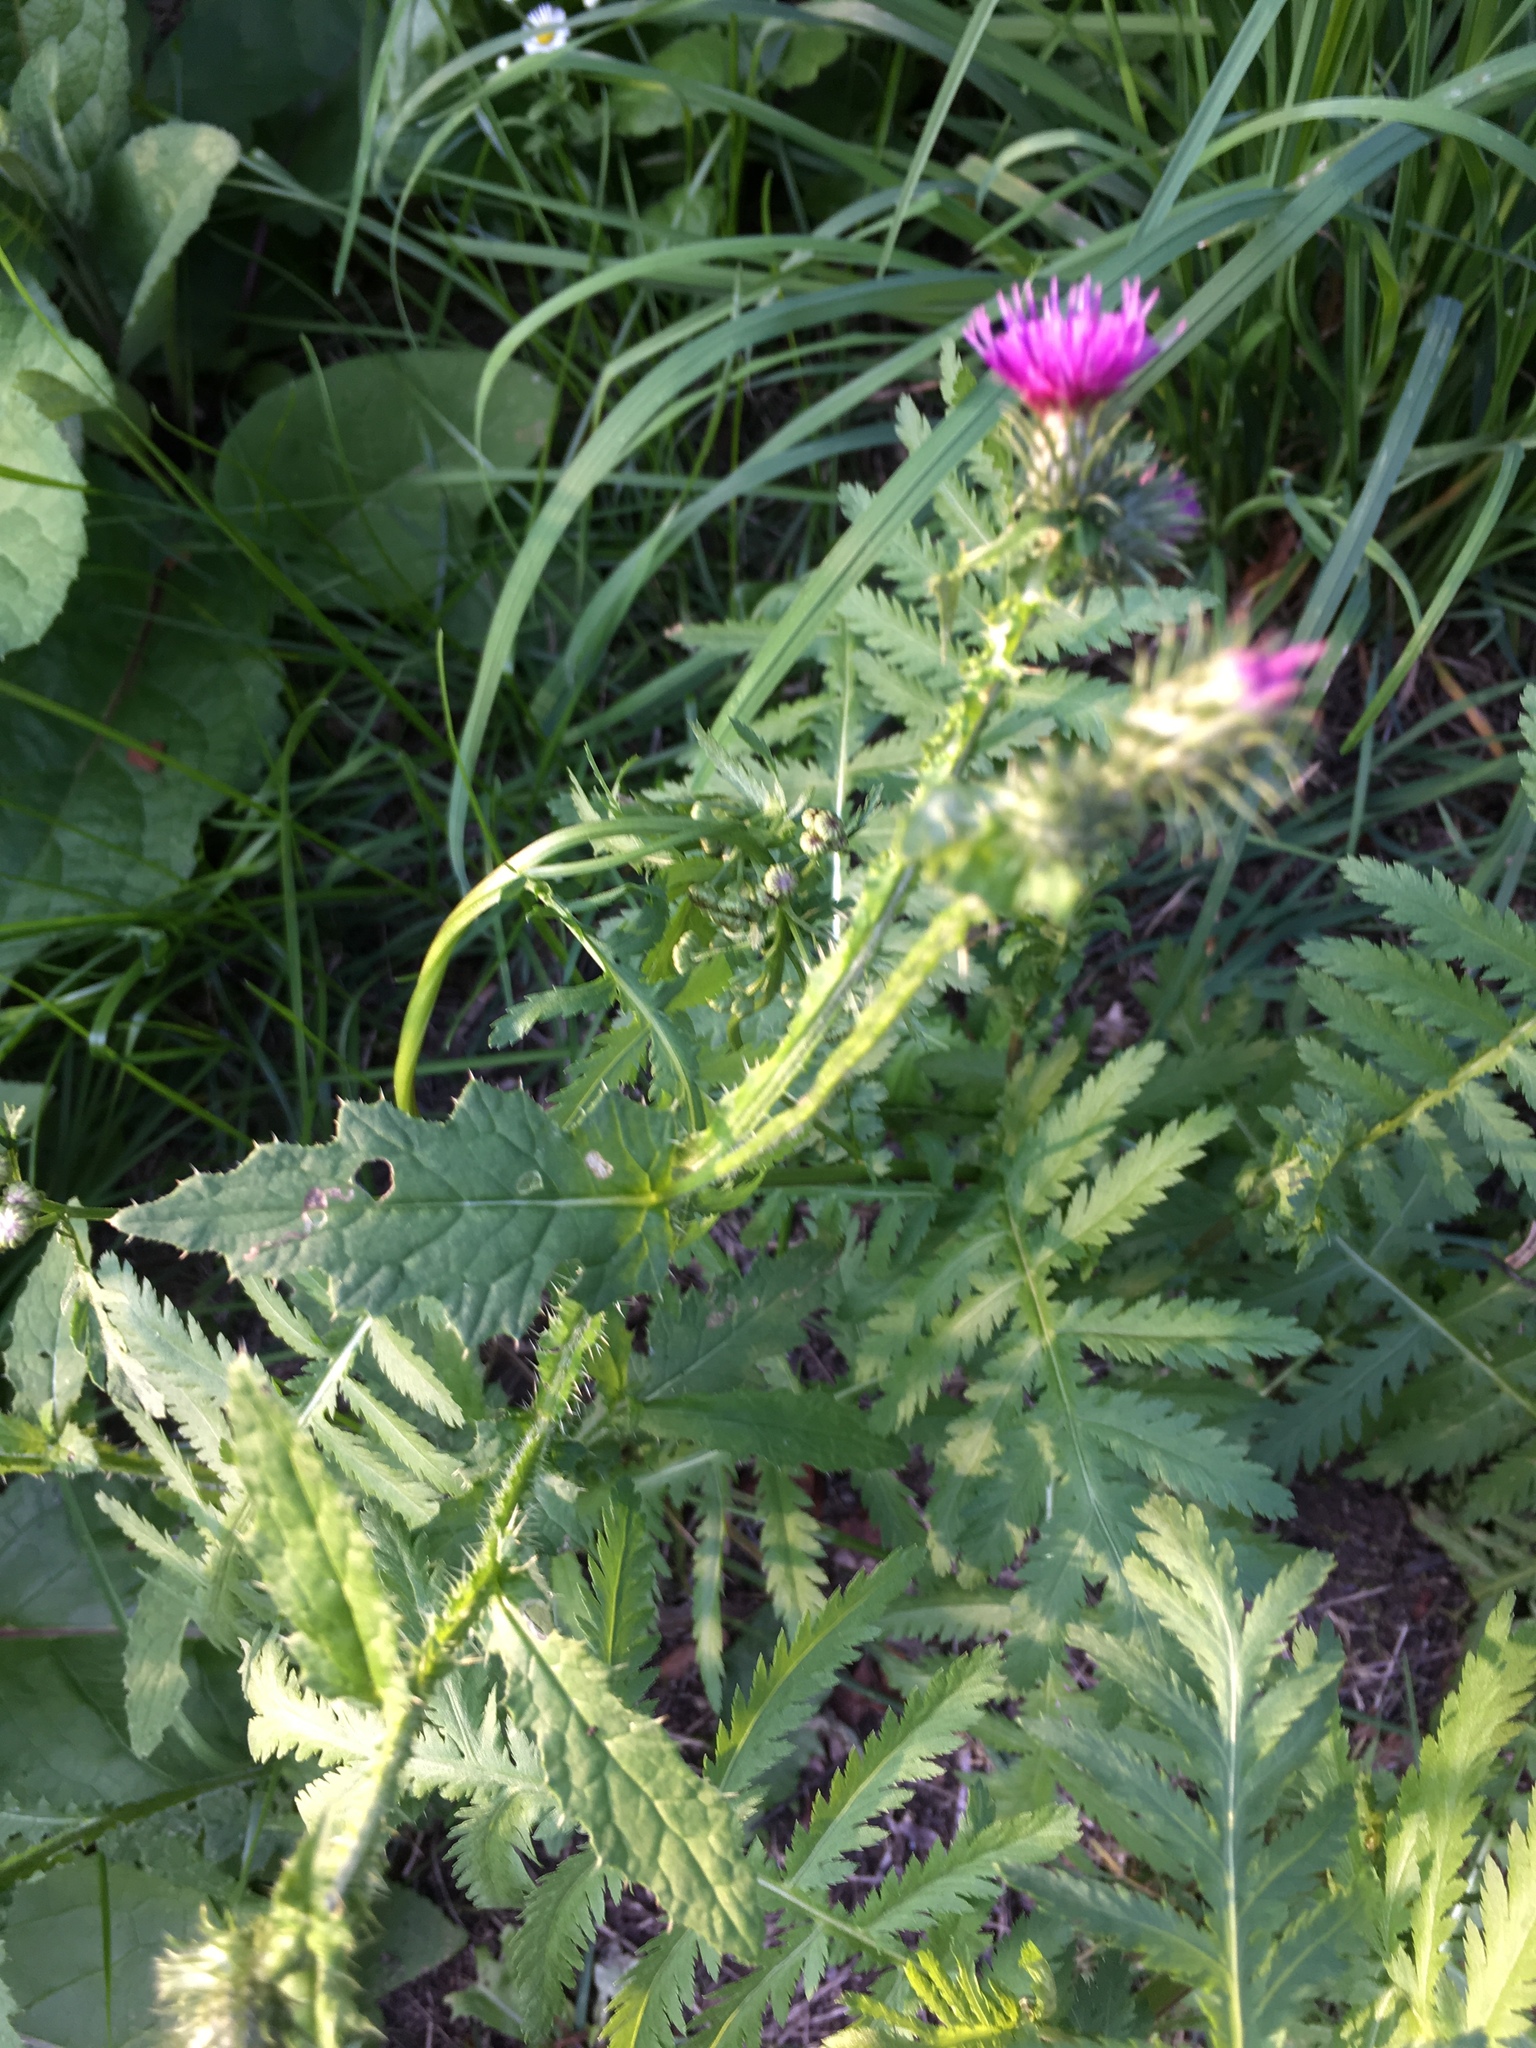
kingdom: Plantae
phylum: Tracheophyta
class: Magnoliopsida
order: Asterales
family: Asteraceae
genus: Carduus
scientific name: Carduus crispus
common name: Welted thistle
